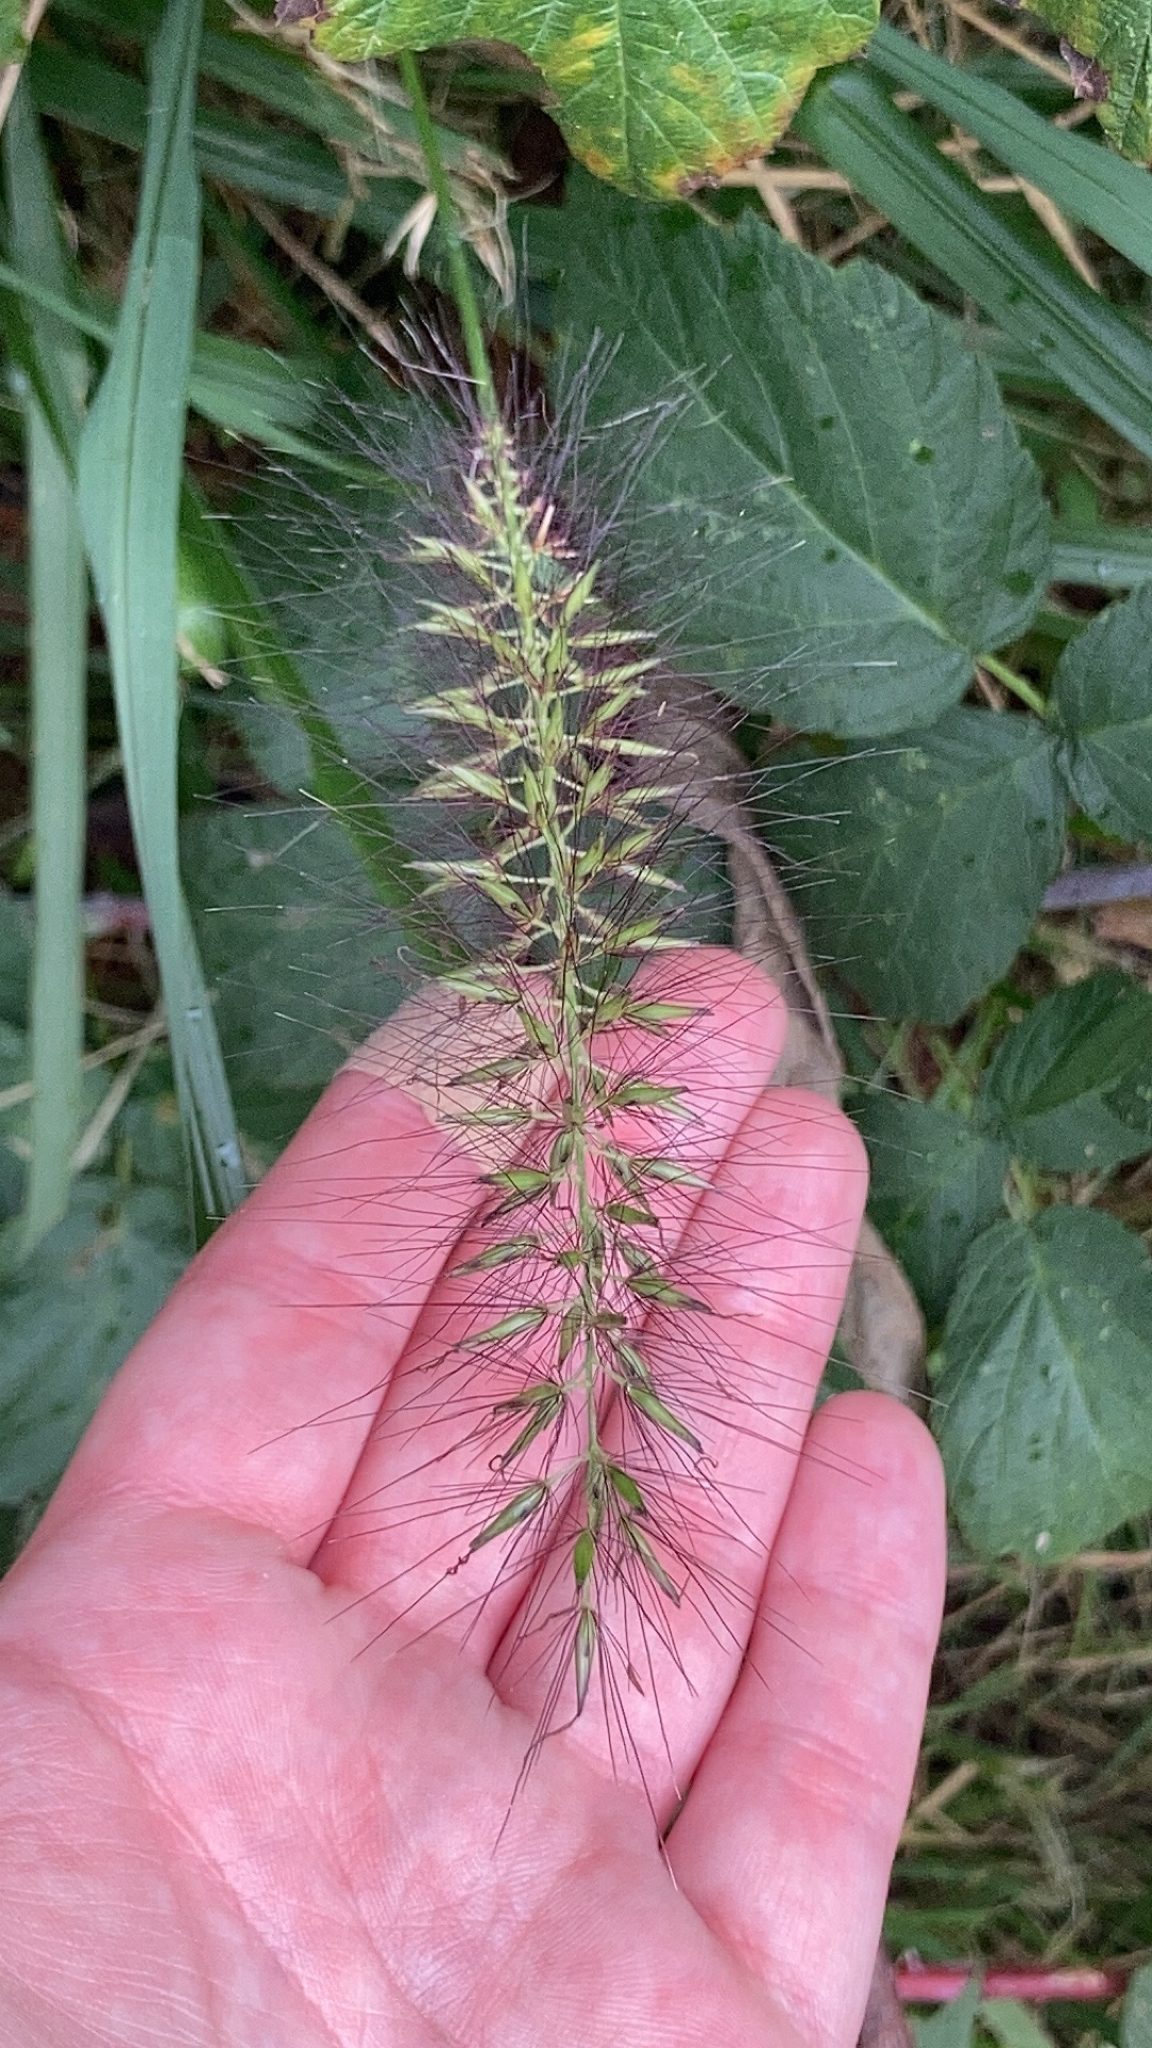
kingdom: Plantae
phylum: Tracheophyta
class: Liliopsida
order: Poales
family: Poaceae
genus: Cenchrus
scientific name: Cenchrus alopecuroides
